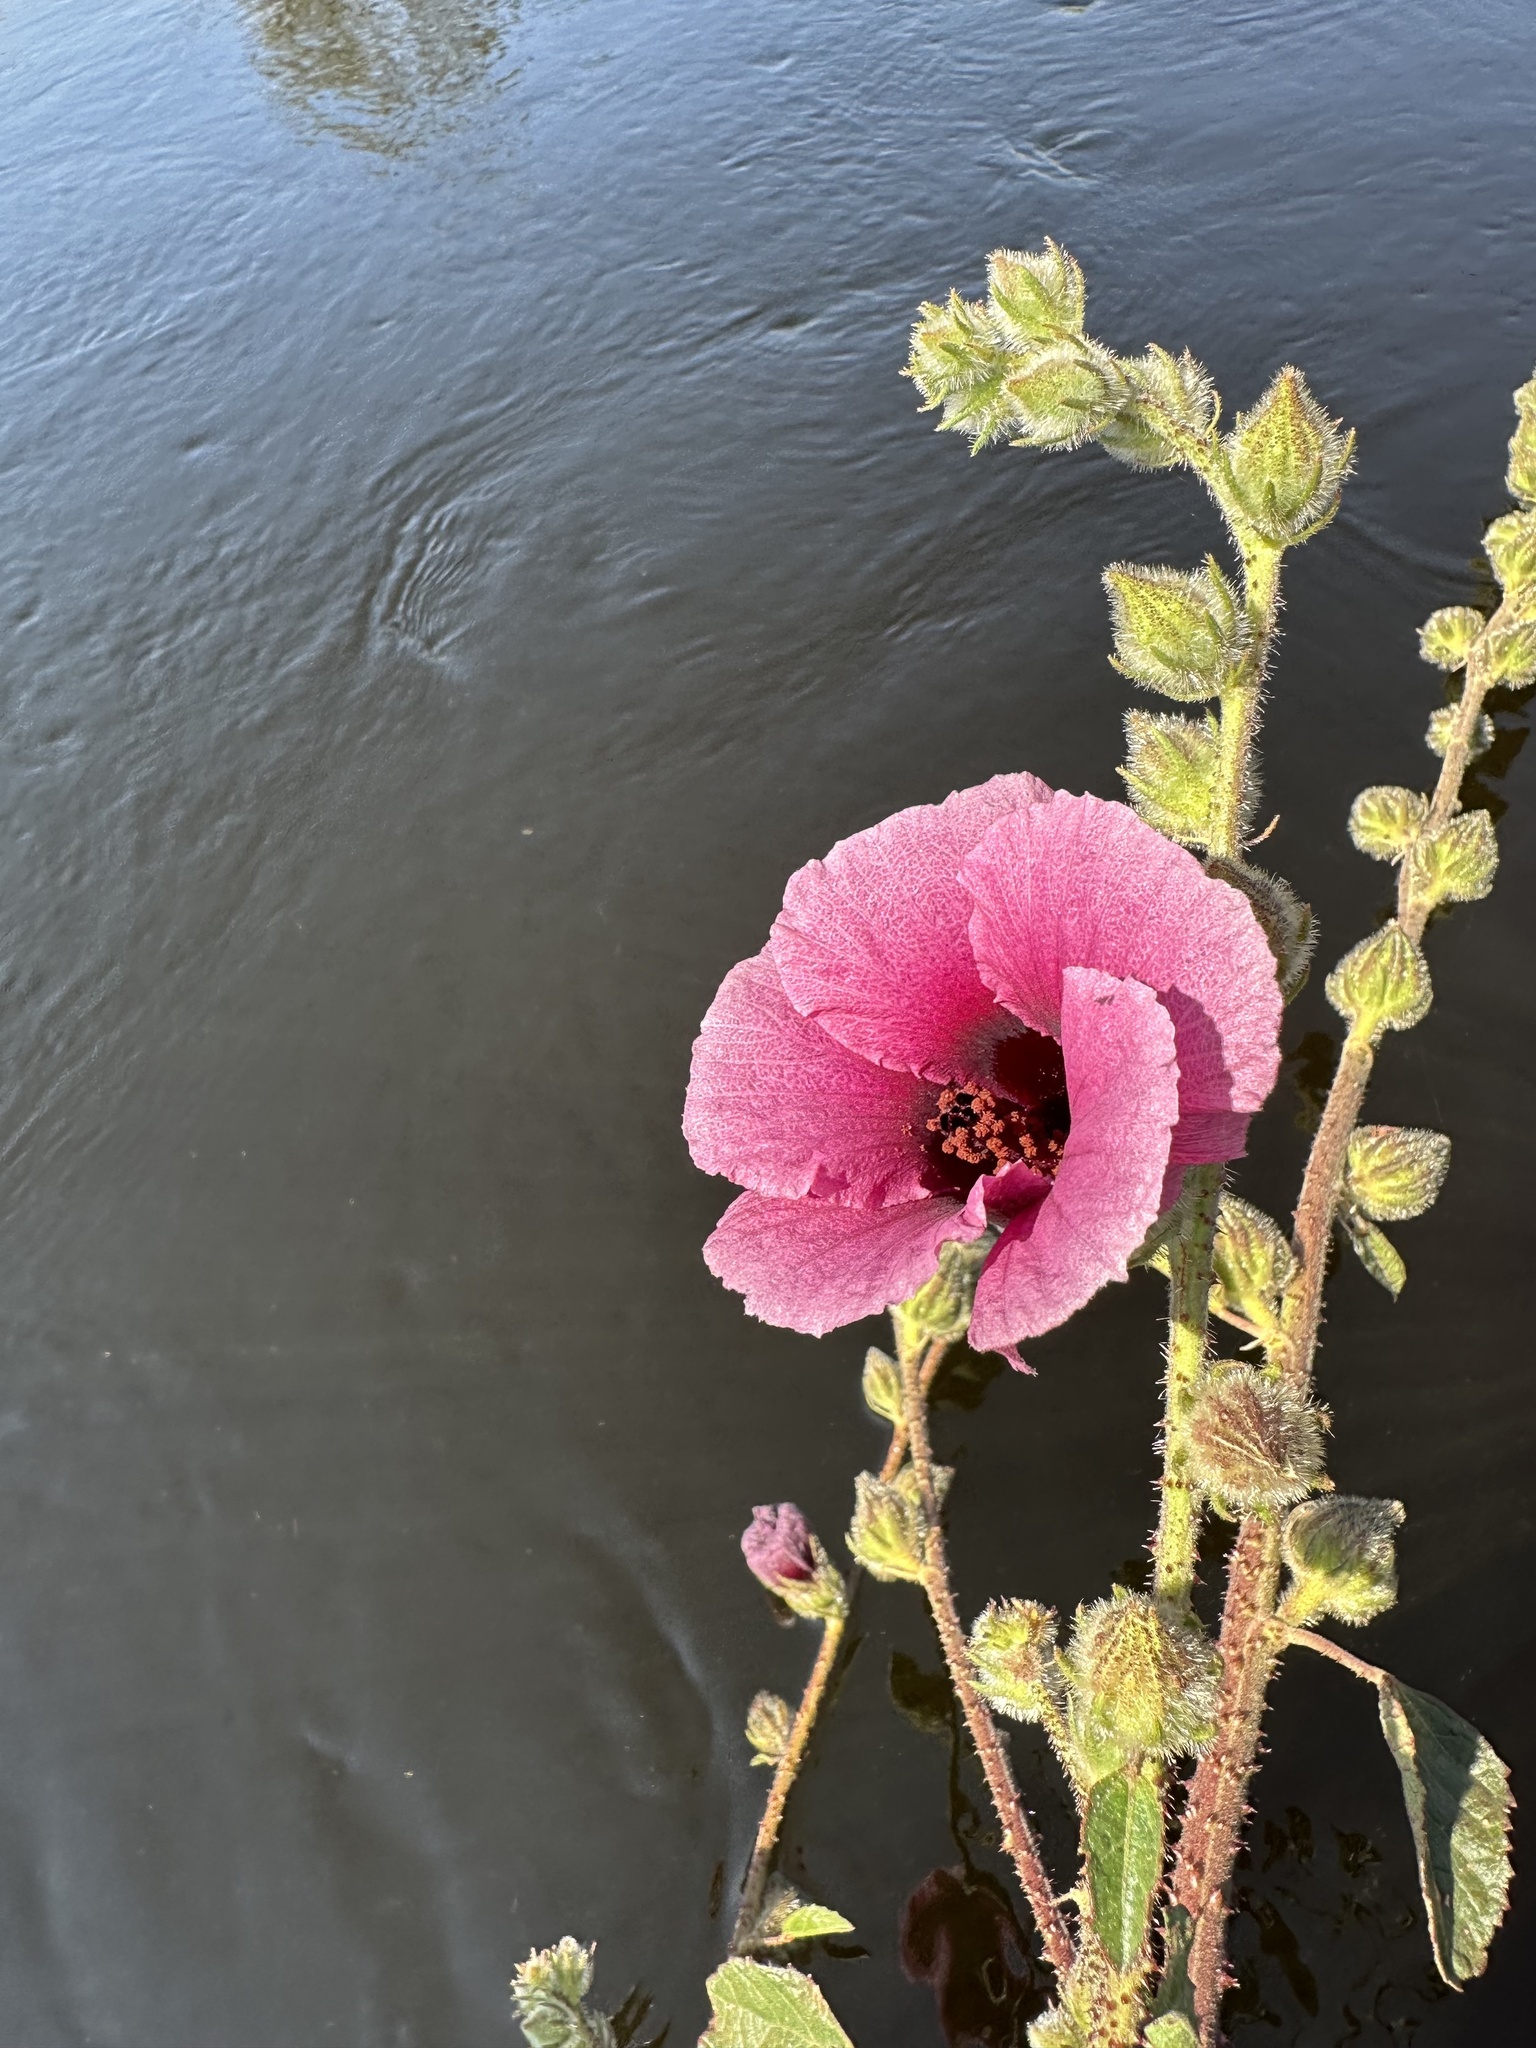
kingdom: Plantae
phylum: Tracheophyta
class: Magnoliopsida
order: Malvales
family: Malvaceae
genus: Hibiscus
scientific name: Hibiscus diversifolius
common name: Cape hibiscus
